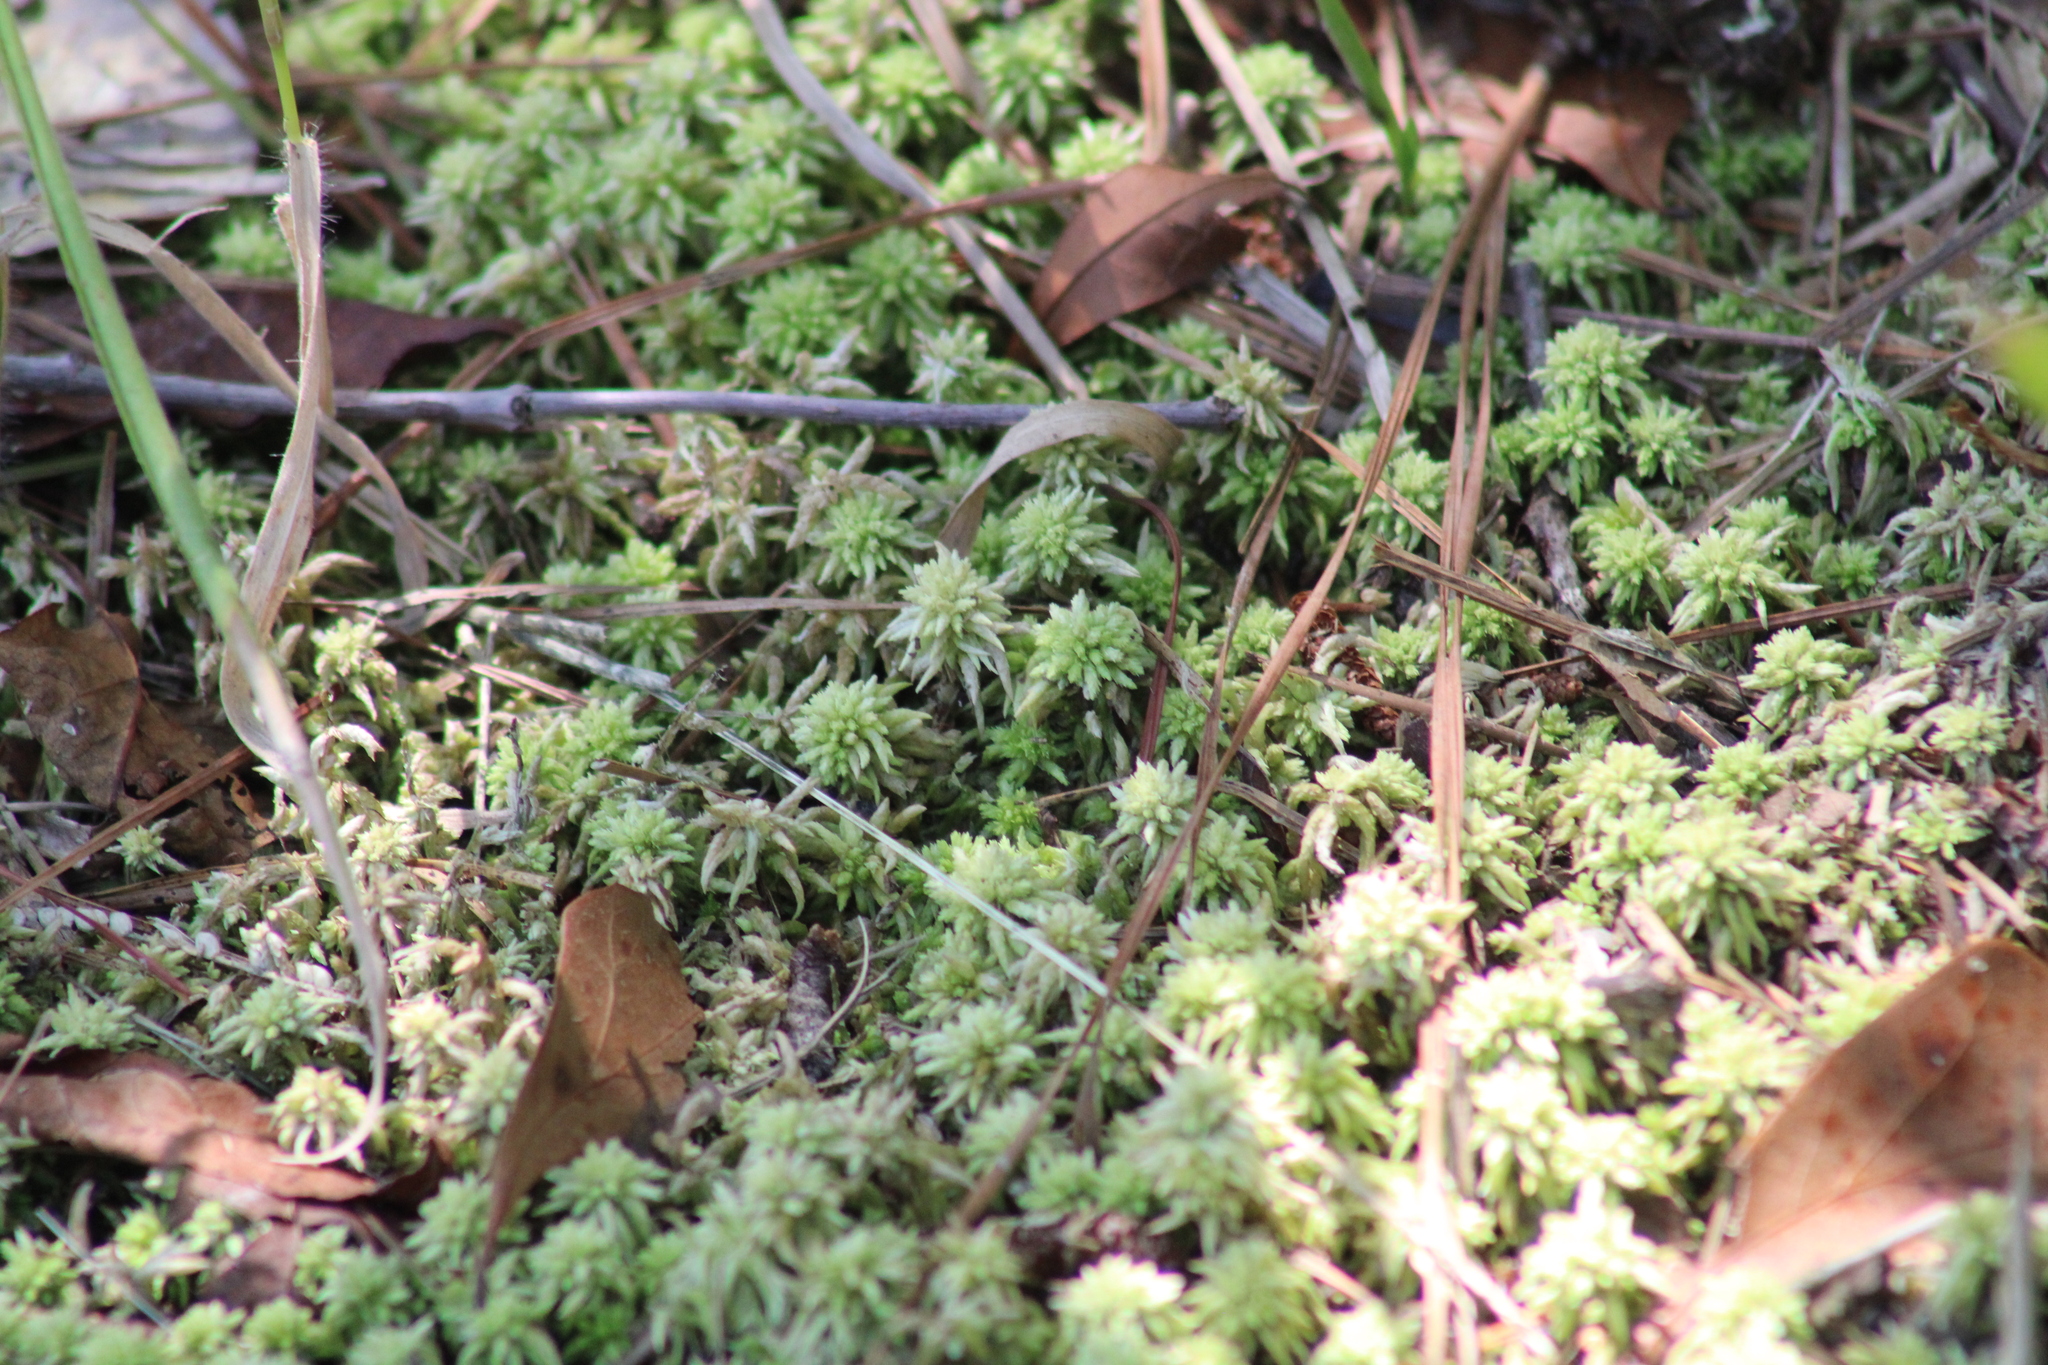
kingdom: Plantae
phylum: Bryophyta
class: Sphagnopsida
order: Sphagnales
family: Sphagnaceae
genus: Sphagnum
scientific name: Sphagnum lescurii
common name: Lesquereux's peat moss
